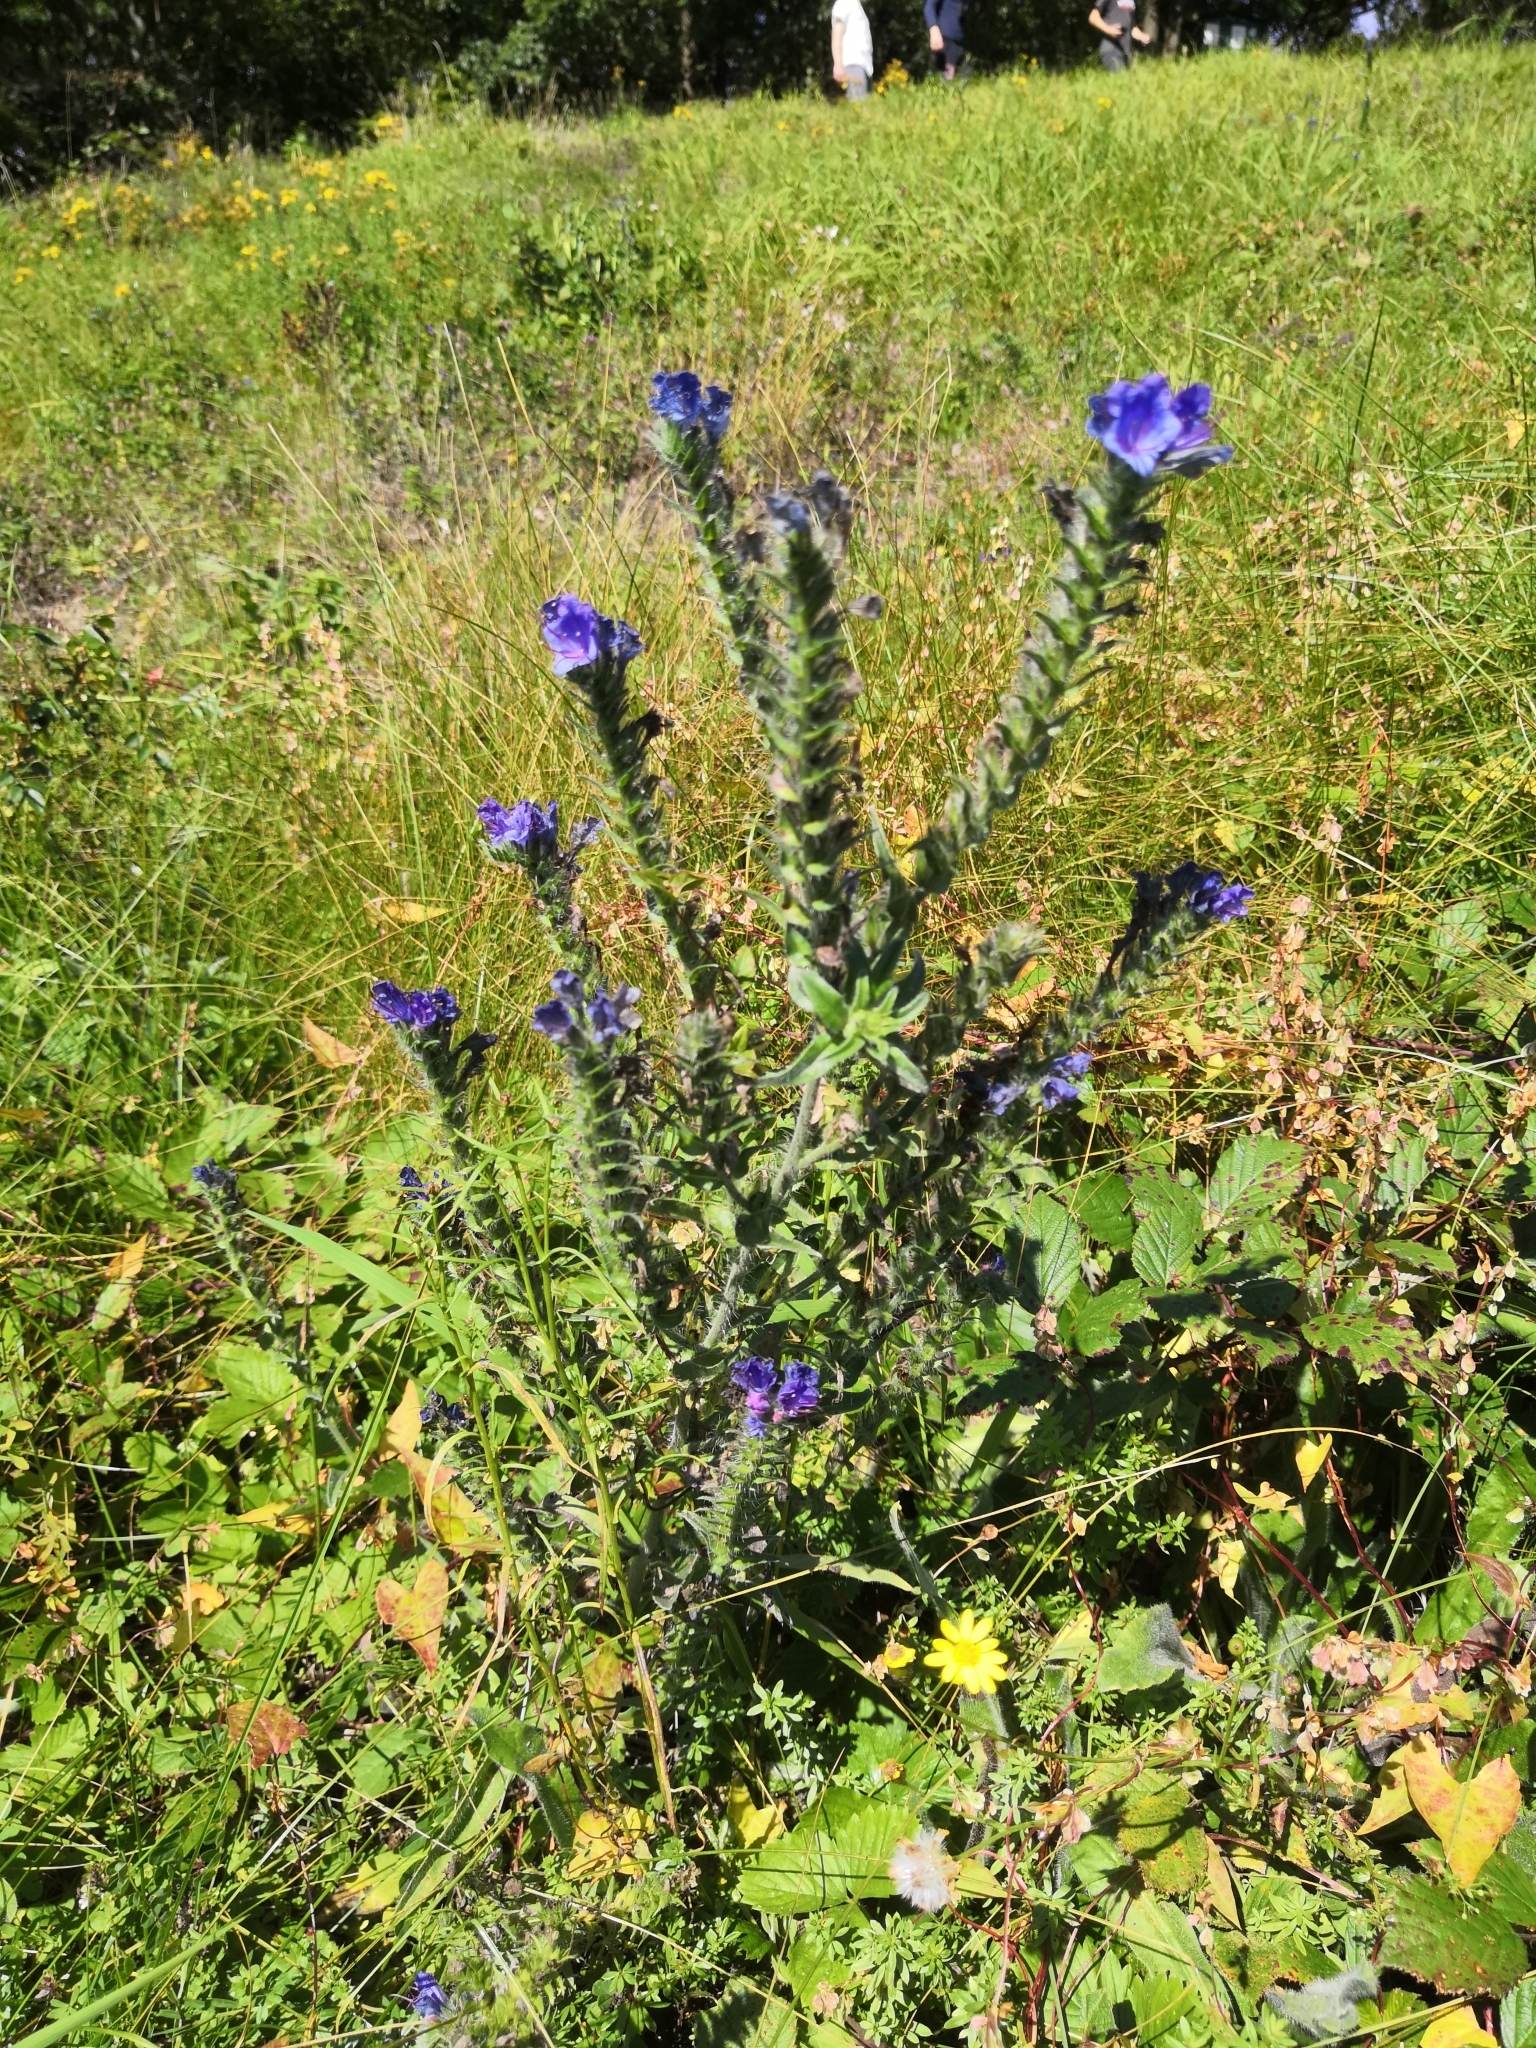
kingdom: Plantae
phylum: Tracheophyta
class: Magnoliopsida
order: Boraginales
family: Boraginaceae
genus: Echium
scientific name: Echium vulgare
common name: Common viper's bugloss
